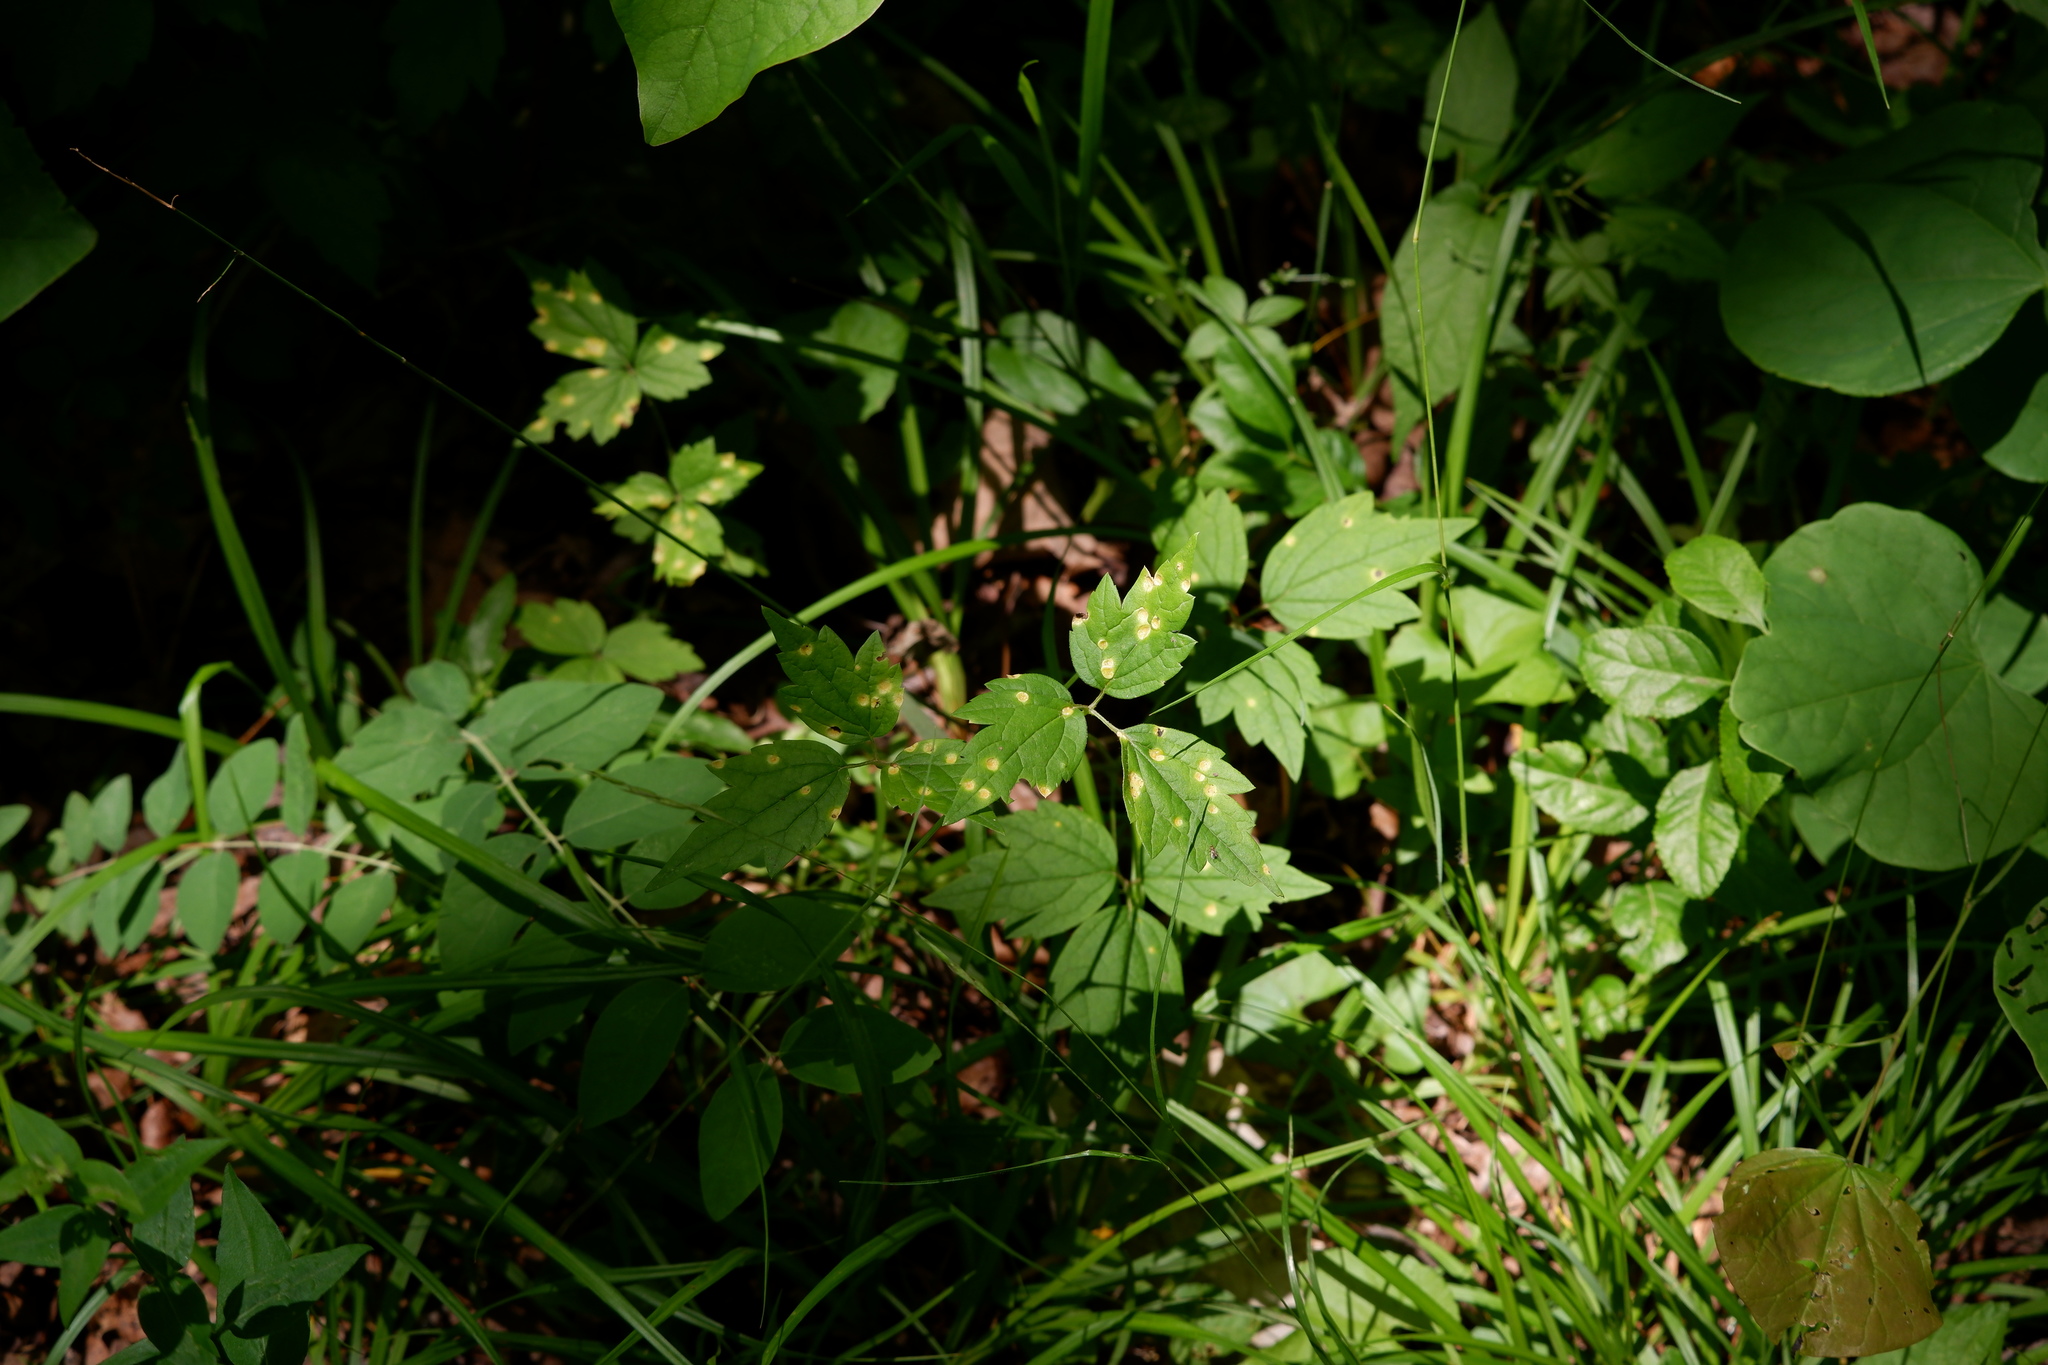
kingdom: Plantae
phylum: Tracheophyta
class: Magnoliopsida
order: Ranunculales
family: Ranunculaceae
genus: Clematis
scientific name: Clematis virginiana
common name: Virgin's-bower
